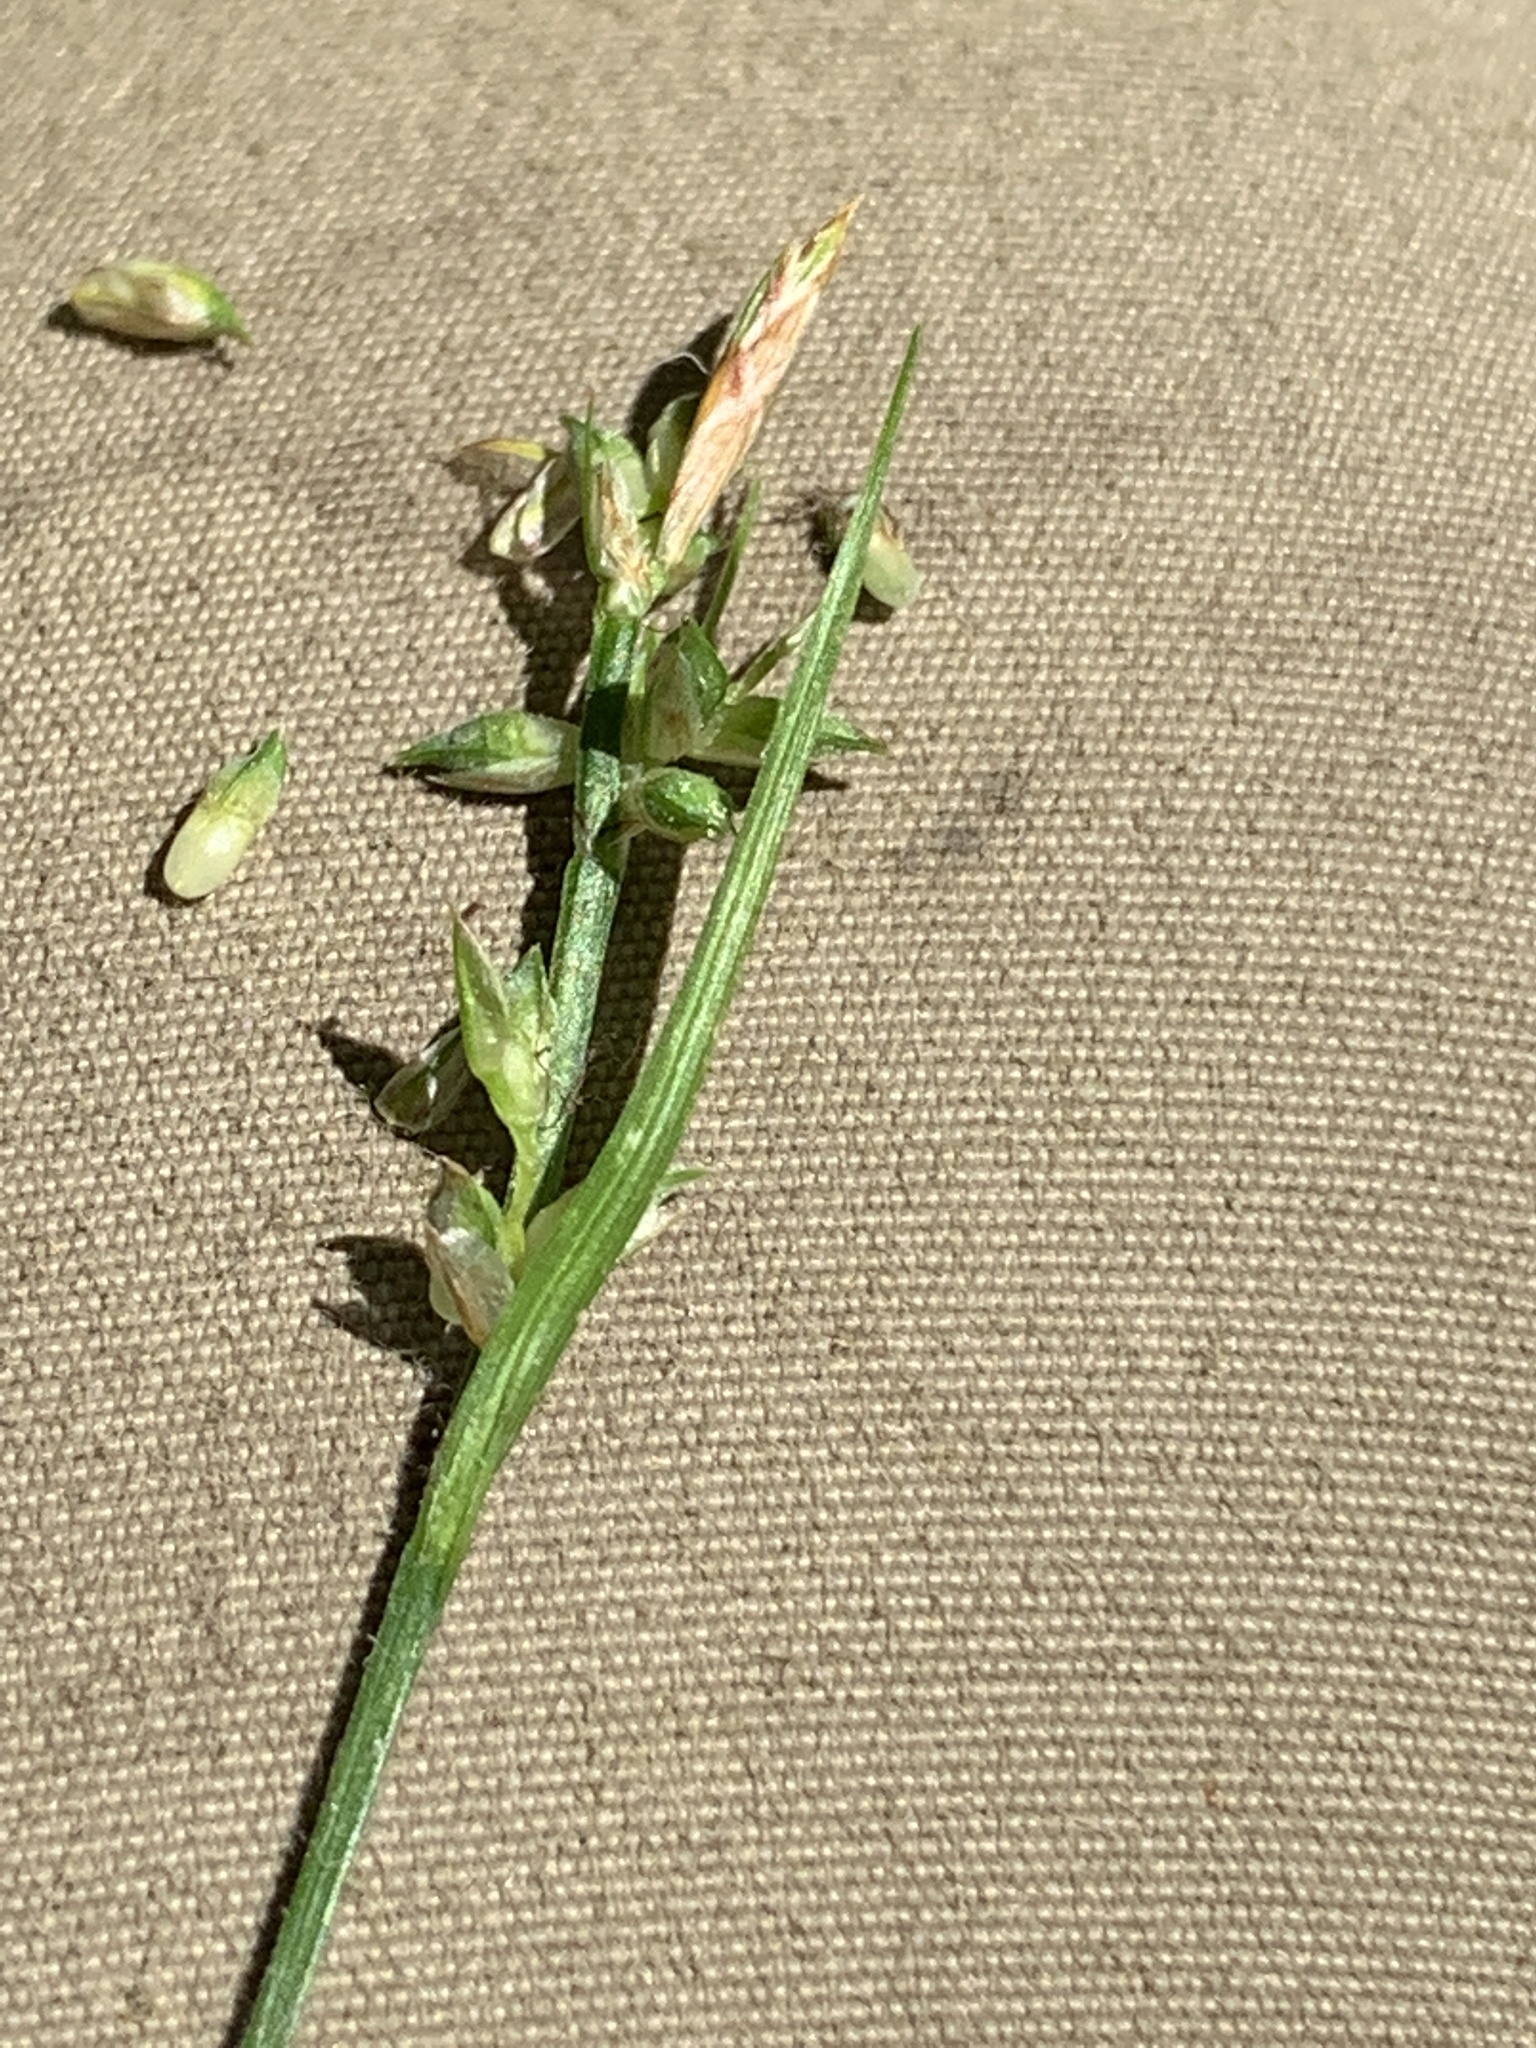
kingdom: Plantae
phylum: Tracheophyta
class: Liliopsida
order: Poales
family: Cyperaceae
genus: Carex
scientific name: Carex communis
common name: Colonial oak sedge
